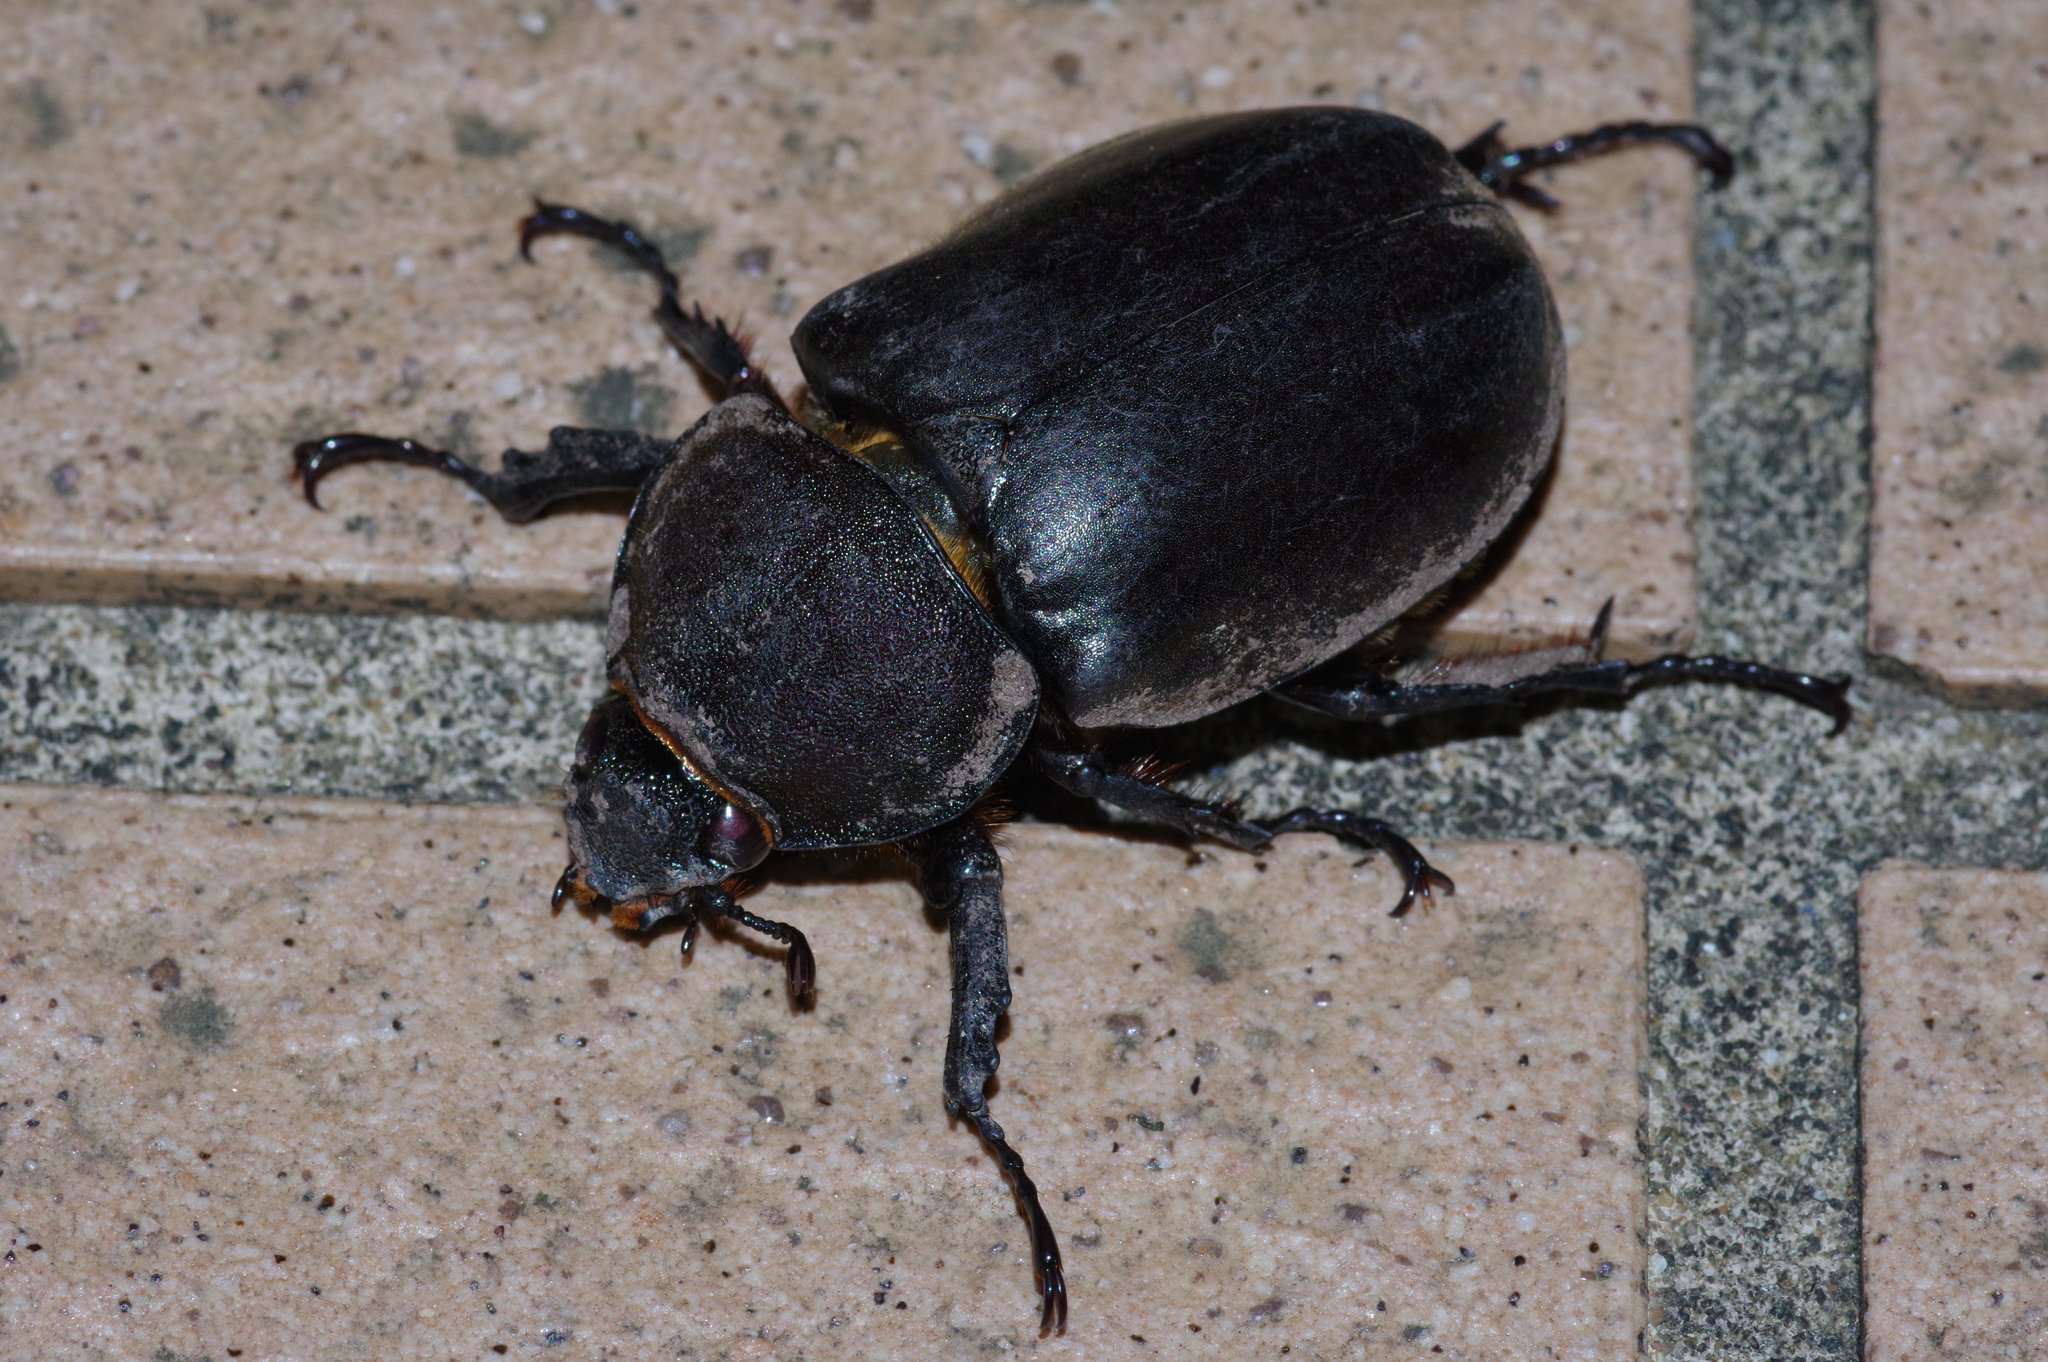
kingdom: Animalia
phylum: Arthropoda
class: Insecta
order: Coleoptera
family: Scarabaeidae
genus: Trypoxylus
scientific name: Trypoxylus dichotomus
